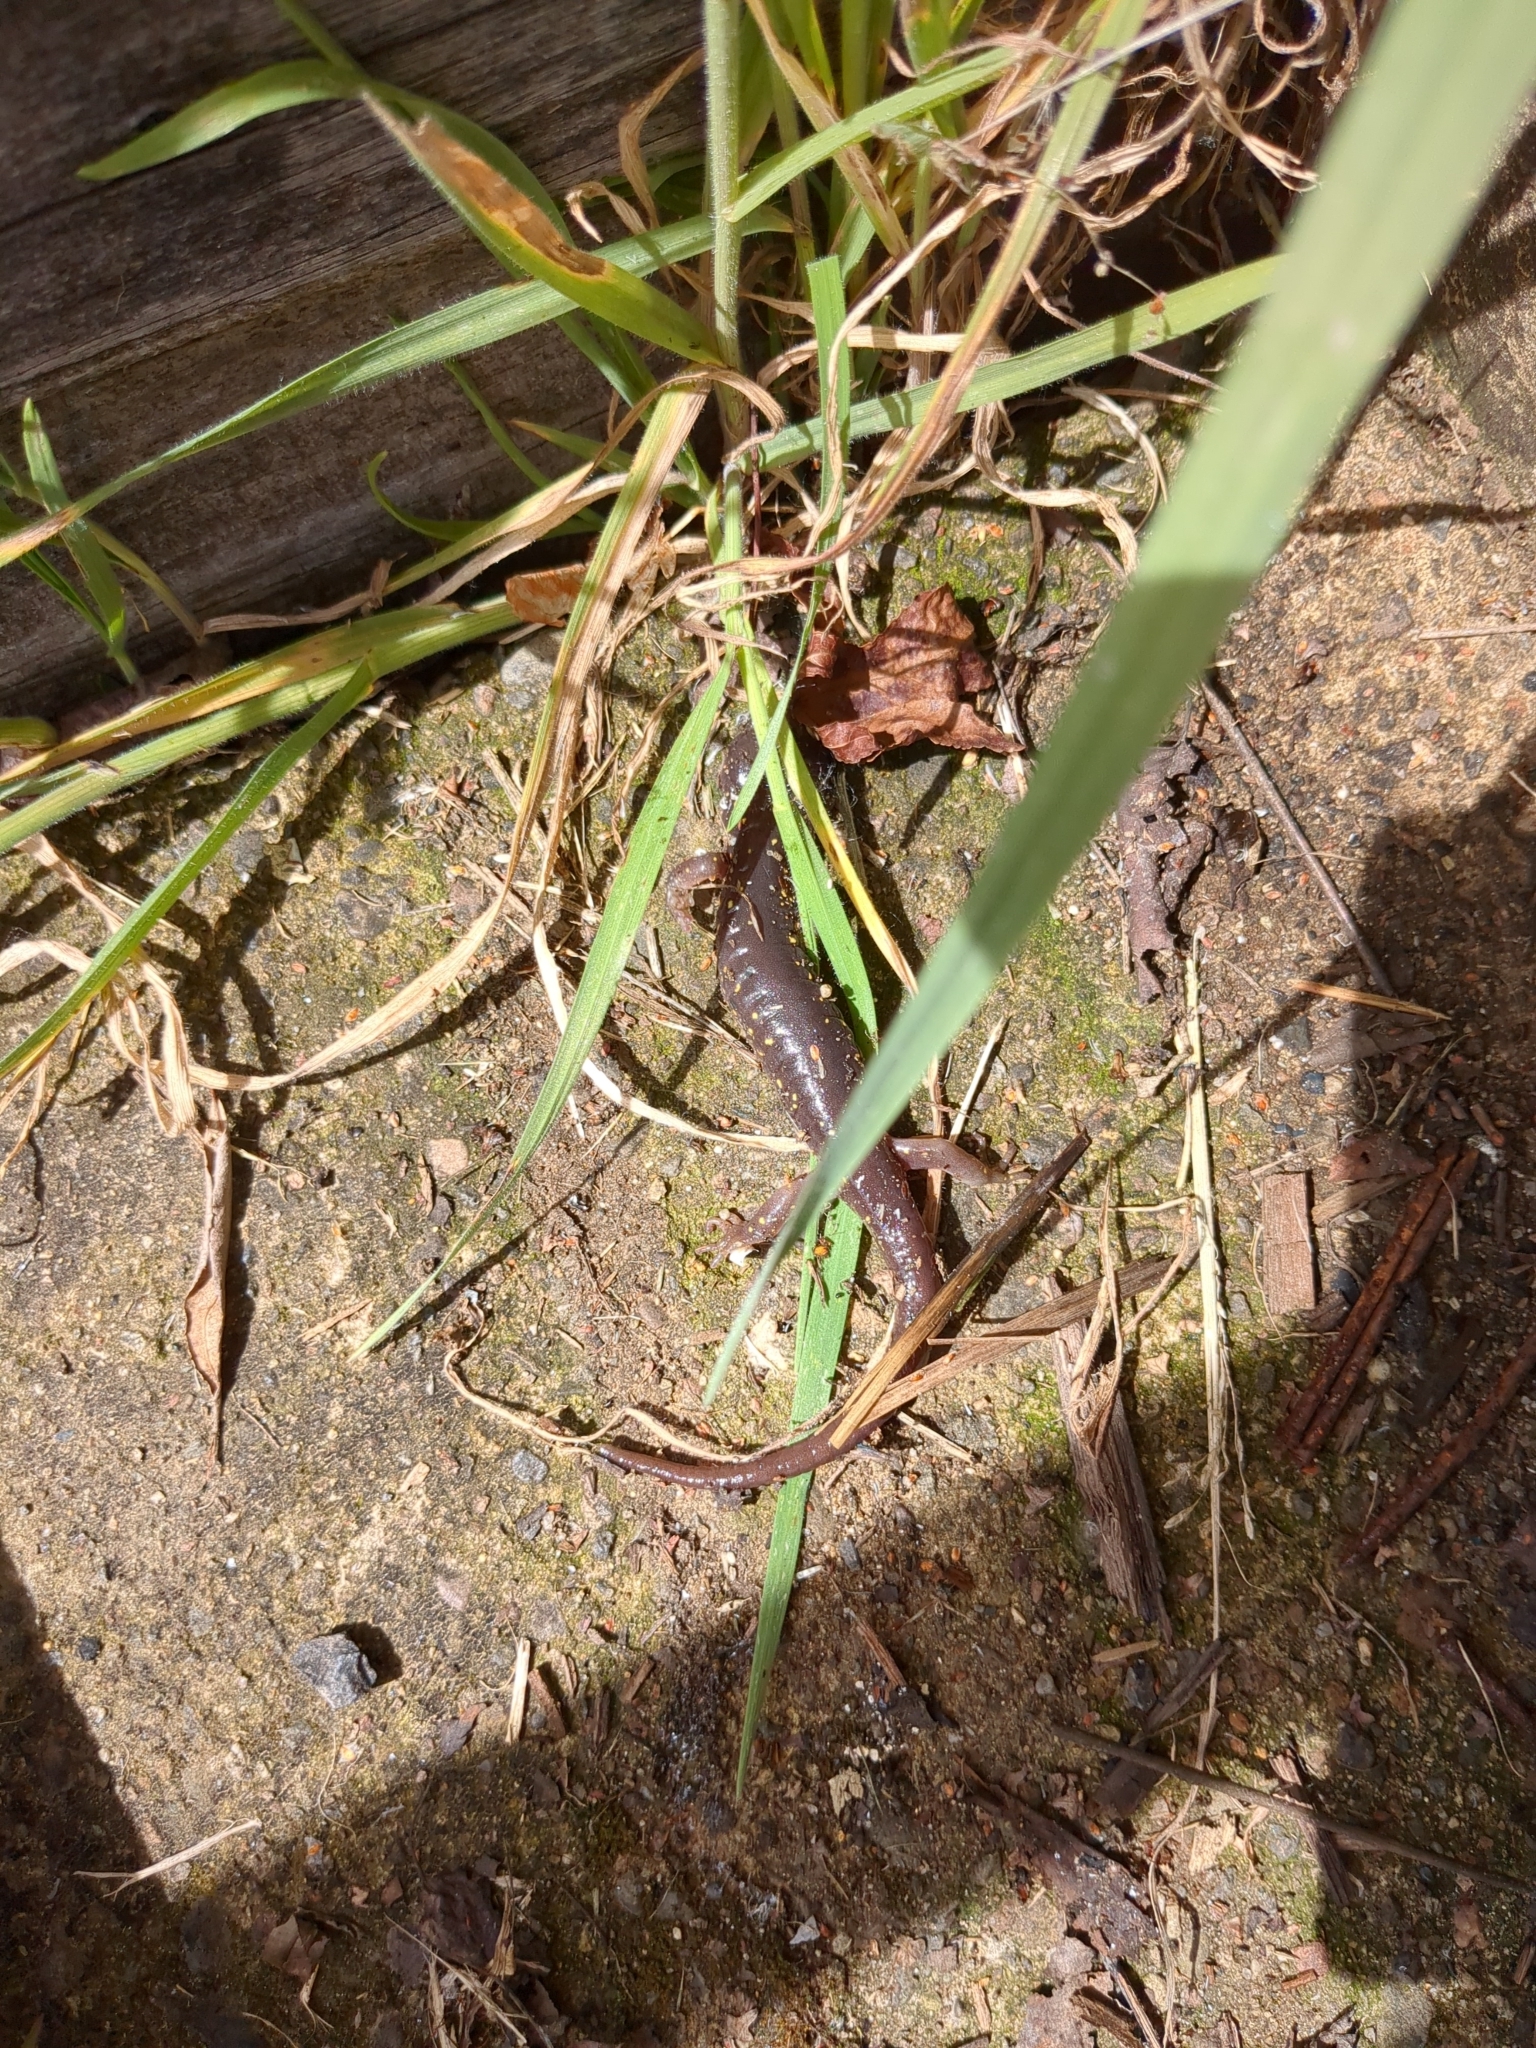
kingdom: Animalia
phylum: Chordata
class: Amphibia
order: Caudata
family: Plethodontidae
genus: Aneides
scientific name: Aneides lugubris
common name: Arboreal salamander
